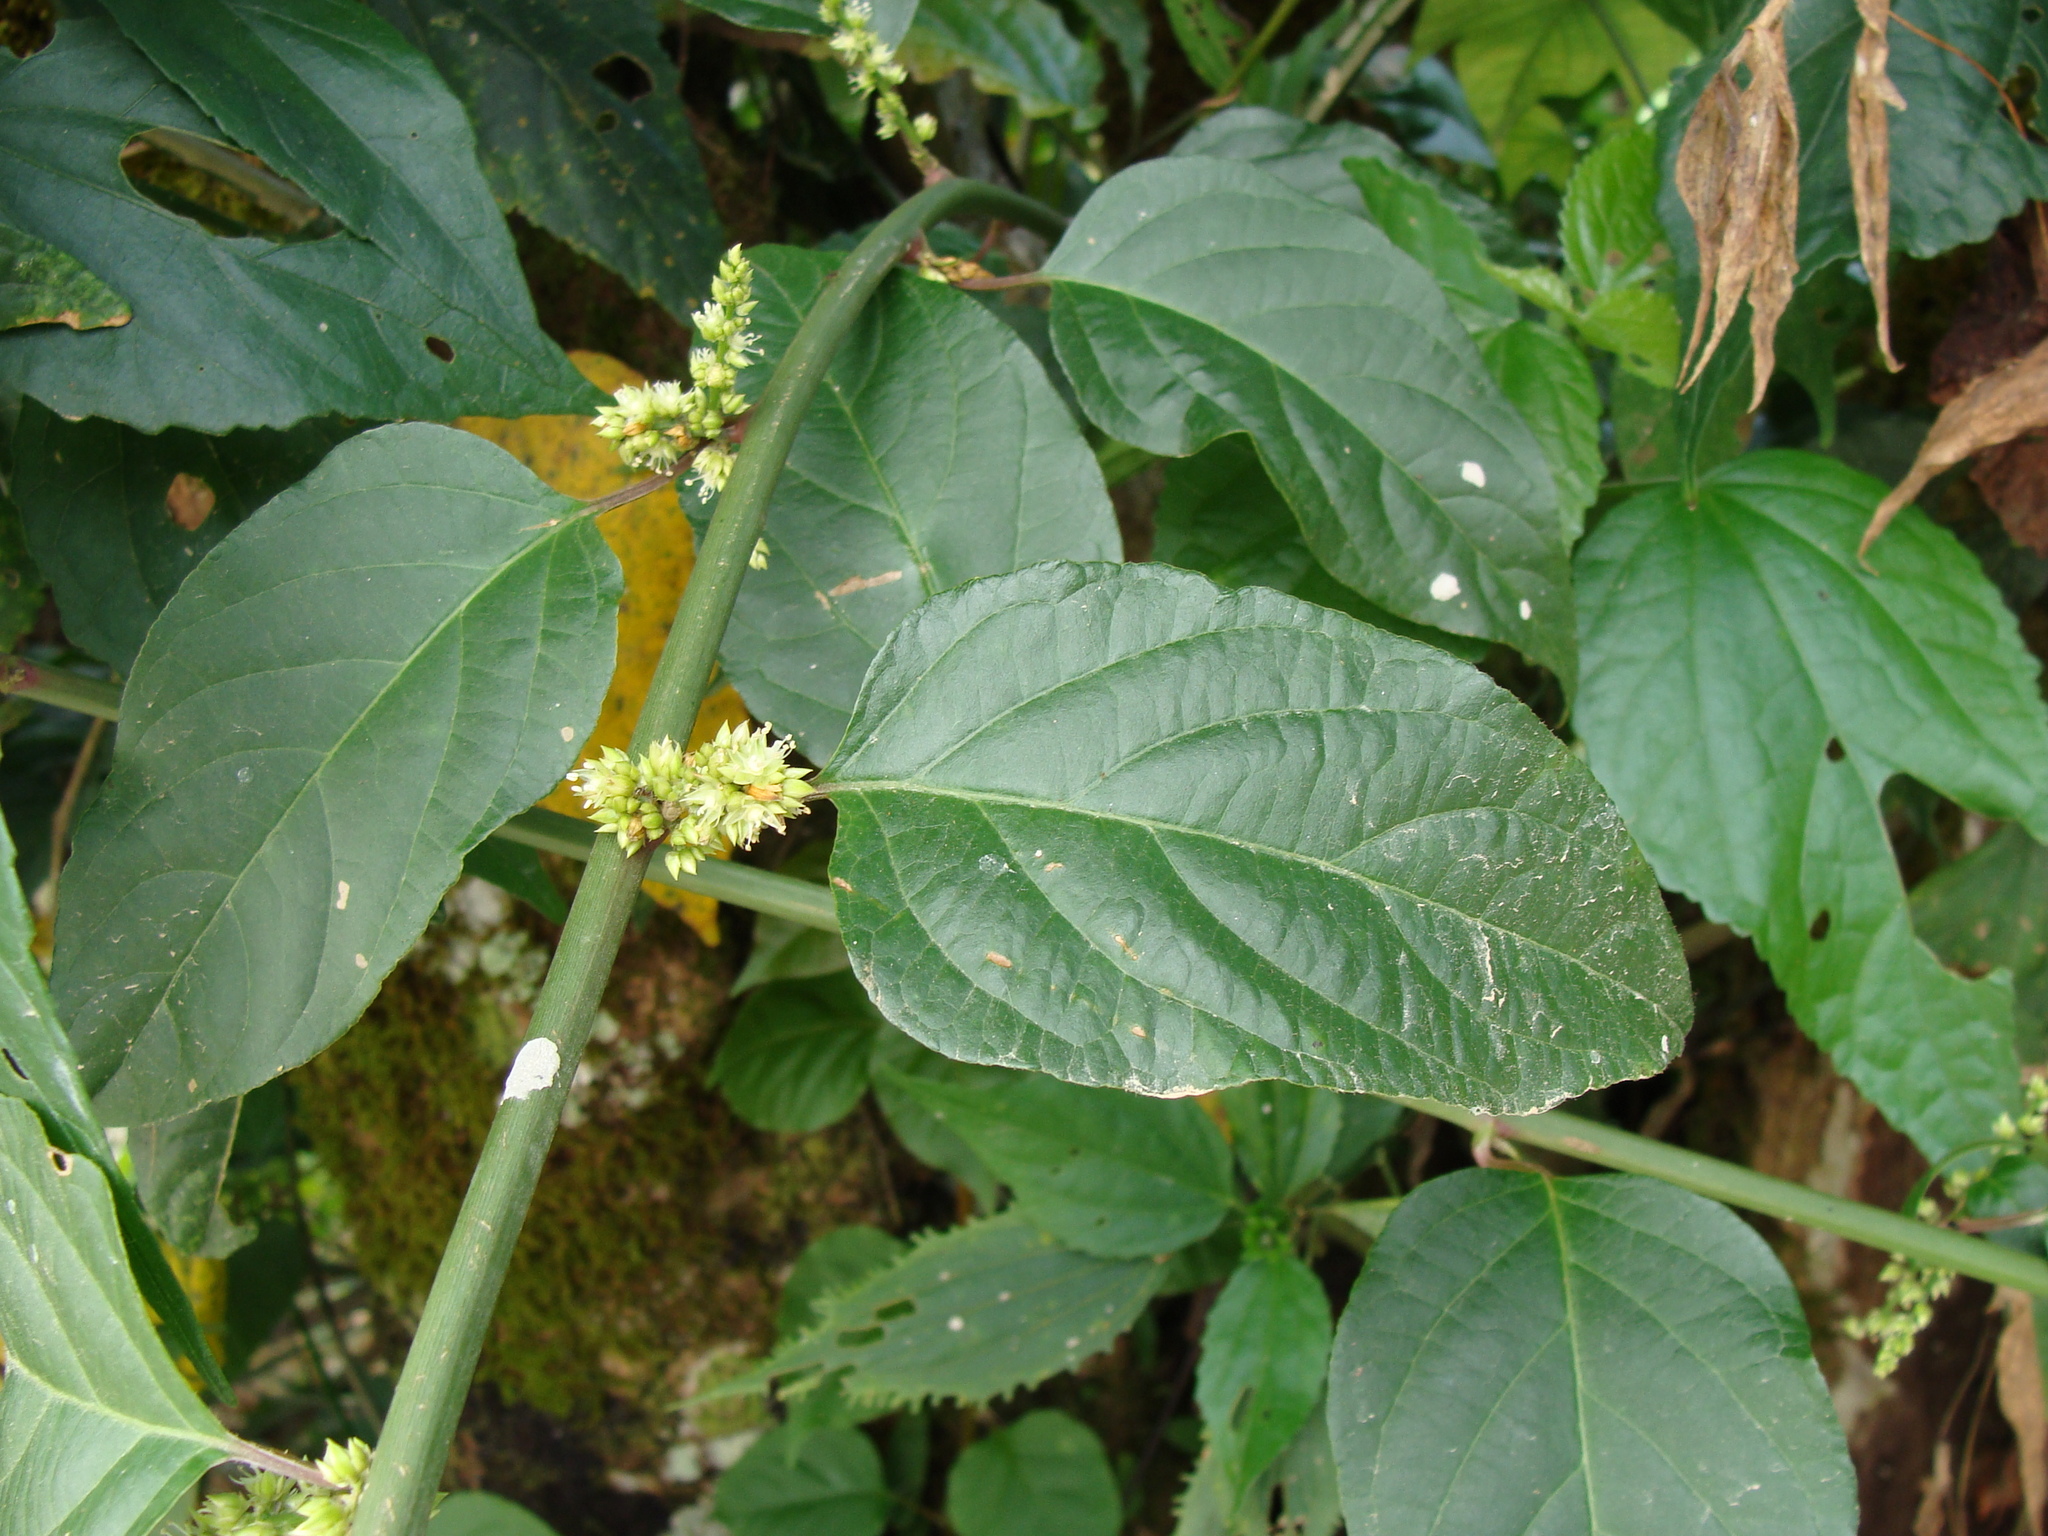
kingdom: Plantae
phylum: Tracheophyta
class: Magnoliopsida
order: Caryophyllales
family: Amaranthaceae
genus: Chamissoa
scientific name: Chamissoa altissima
